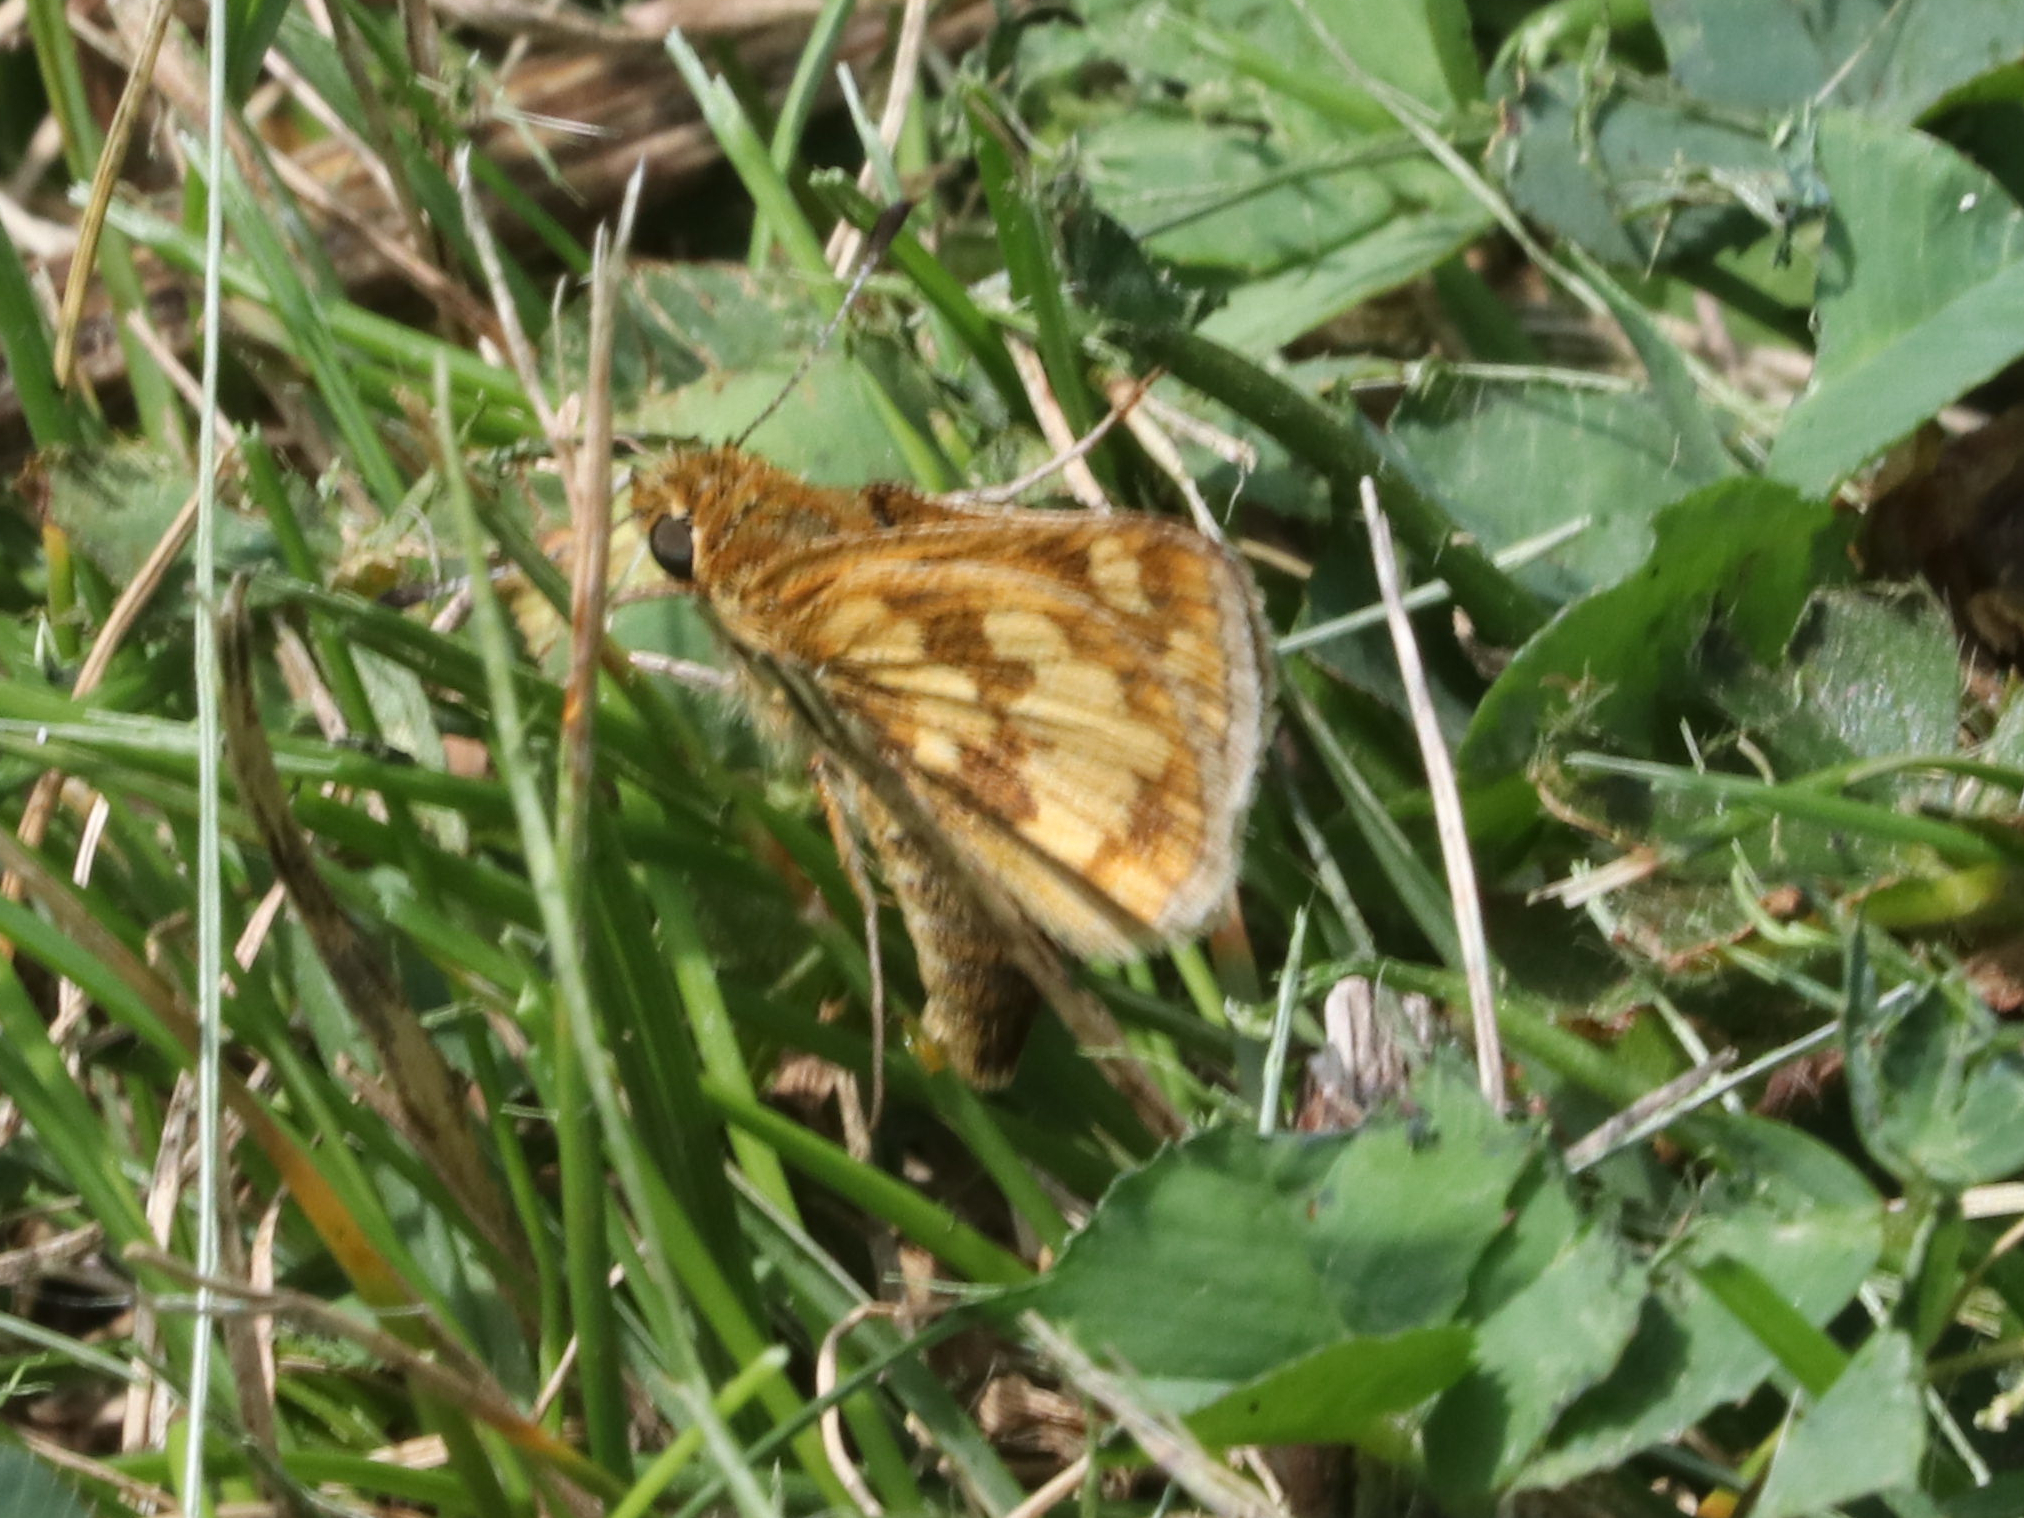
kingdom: Animalia
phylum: Arthropoda
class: Insecta
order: Lepidoptera
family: Hesperiidae
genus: Polites
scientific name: Polites coras
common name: Peck's skipper
